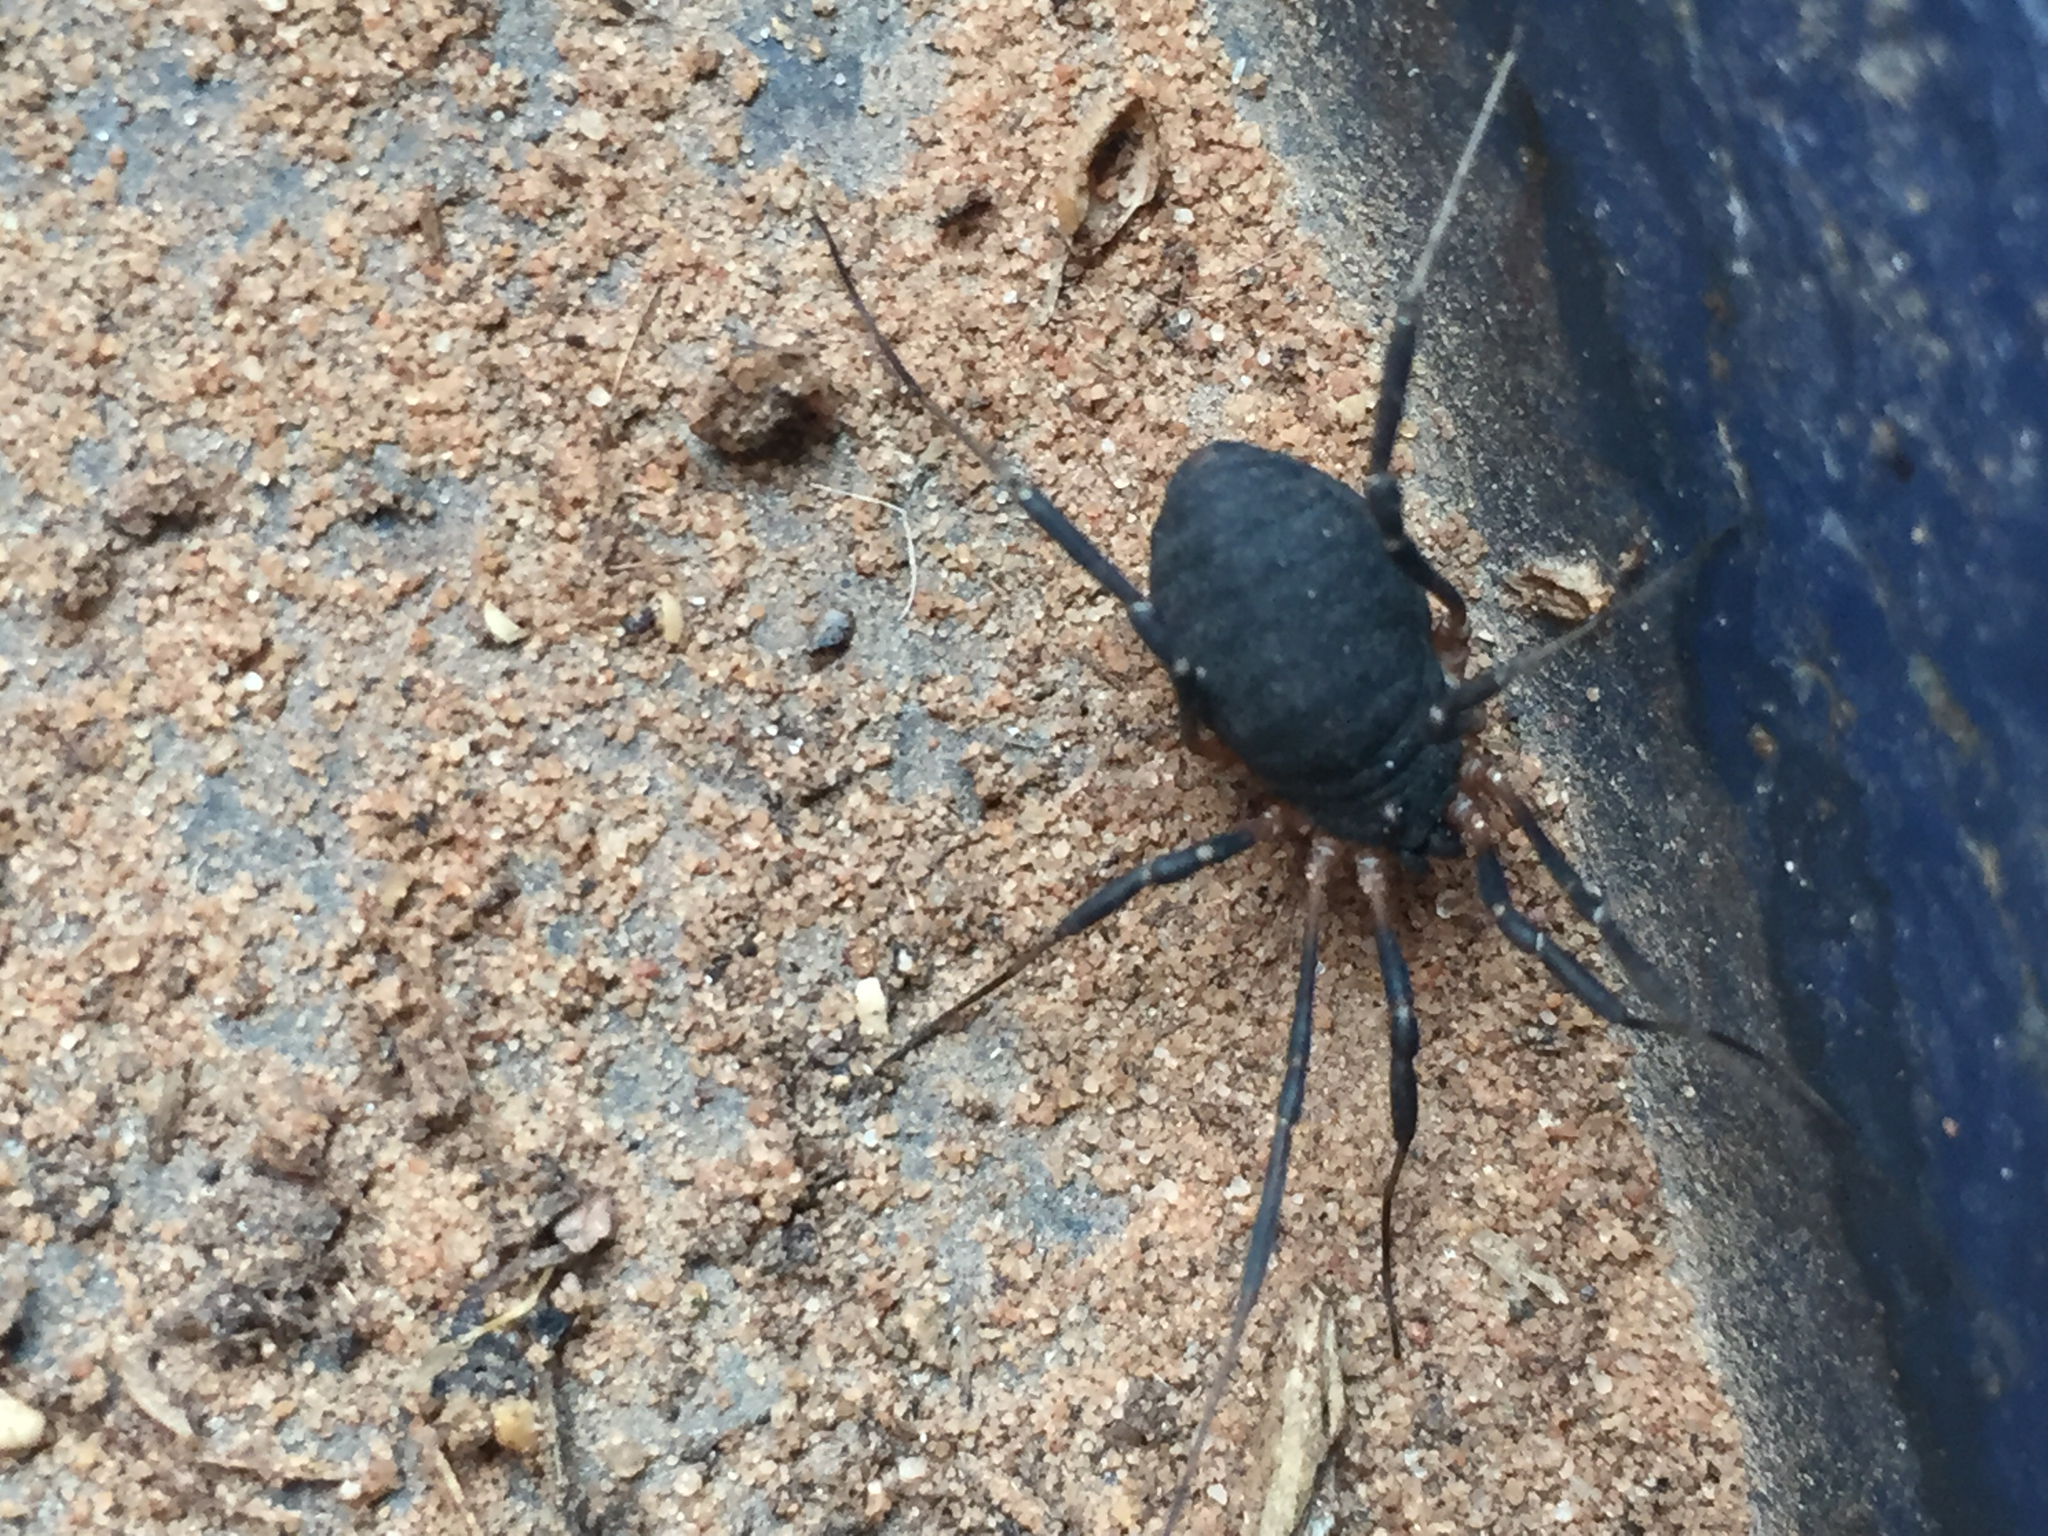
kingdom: Animalia
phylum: Arthropoda
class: Arachnida
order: Opiliones
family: Sclerosomatidae
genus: Eumesosoma
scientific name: Eumesosoma roeweri
